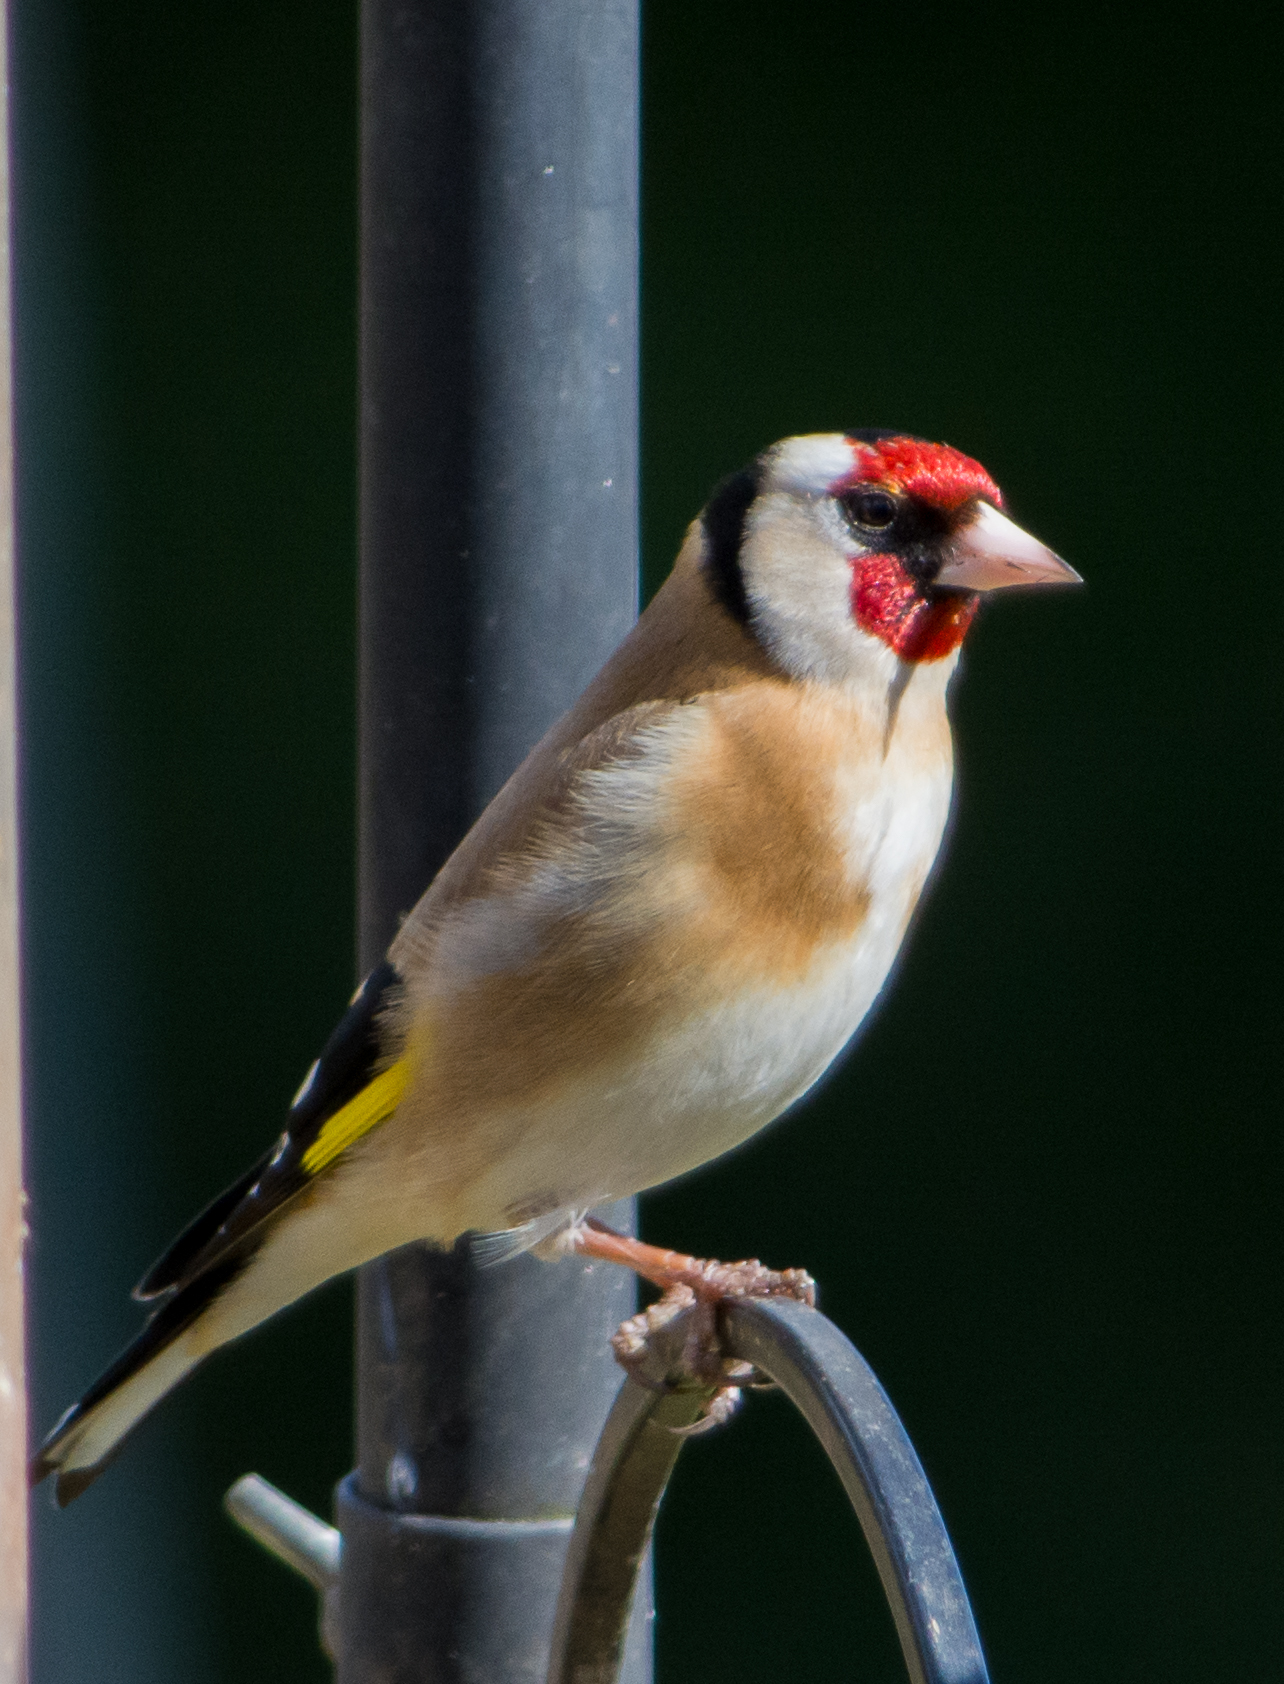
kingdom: Animalia
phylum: Chordata
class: Aves
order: Passeriformes
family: Fringillidae
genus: Carduelis
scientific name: Carduelis carduelis
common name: European goldfinch
